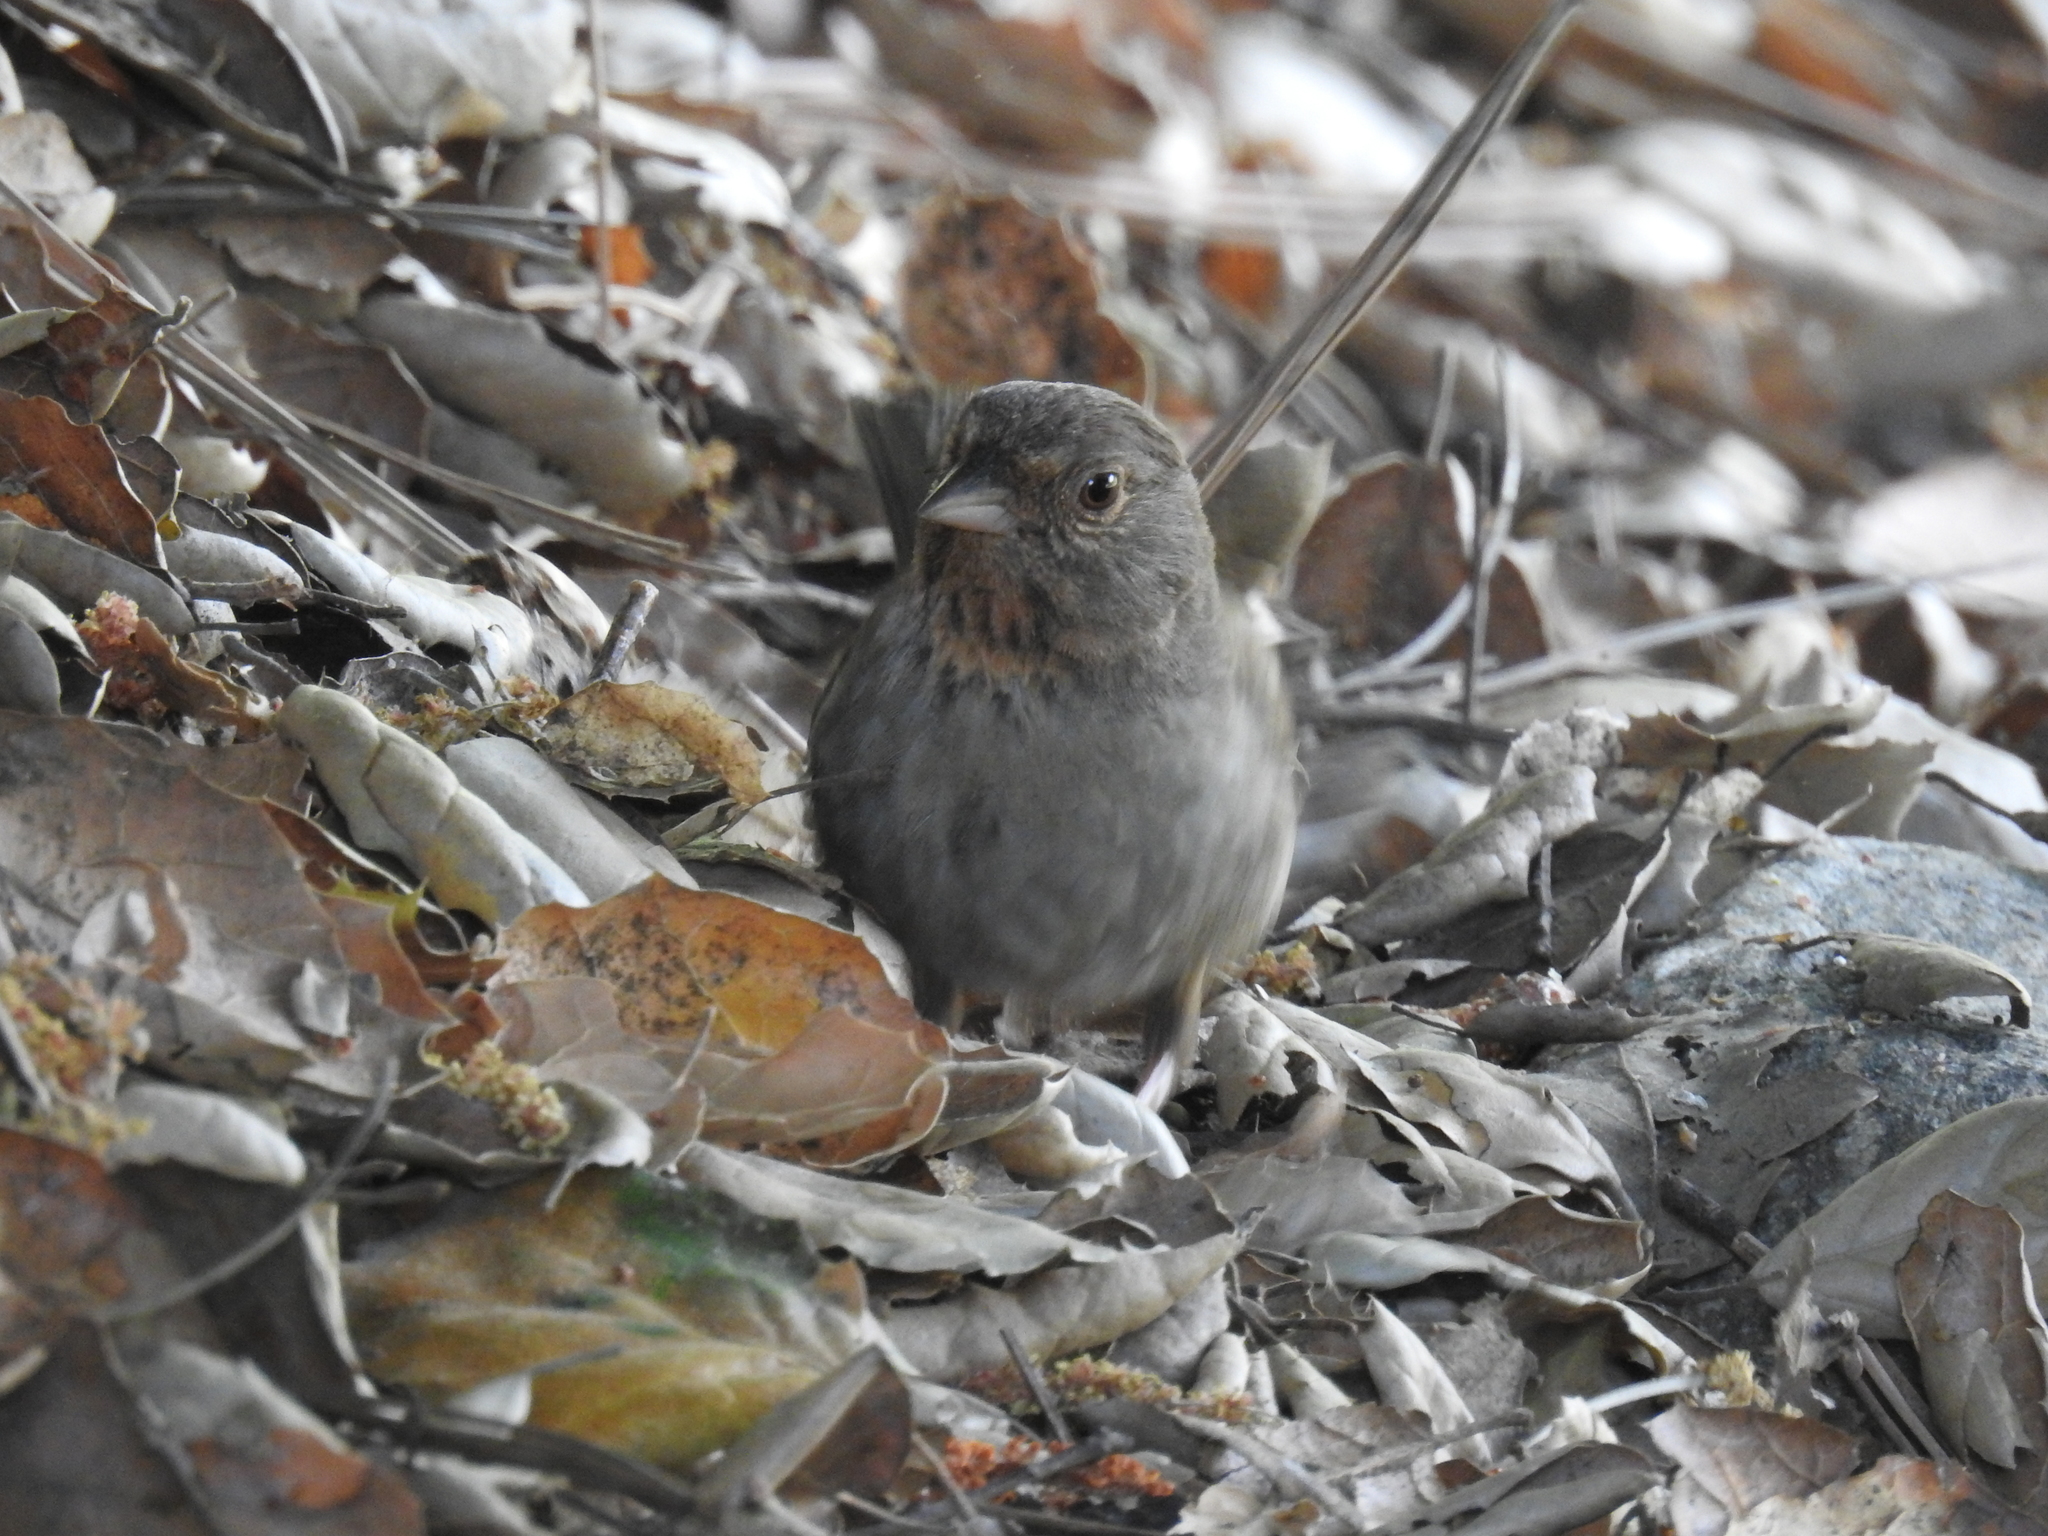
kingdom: Animalia
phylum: Chordata
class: Aves
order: Passeriformes
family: Passerellidae
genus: Melozone
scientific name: Melozone crissalis
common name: California towhee
